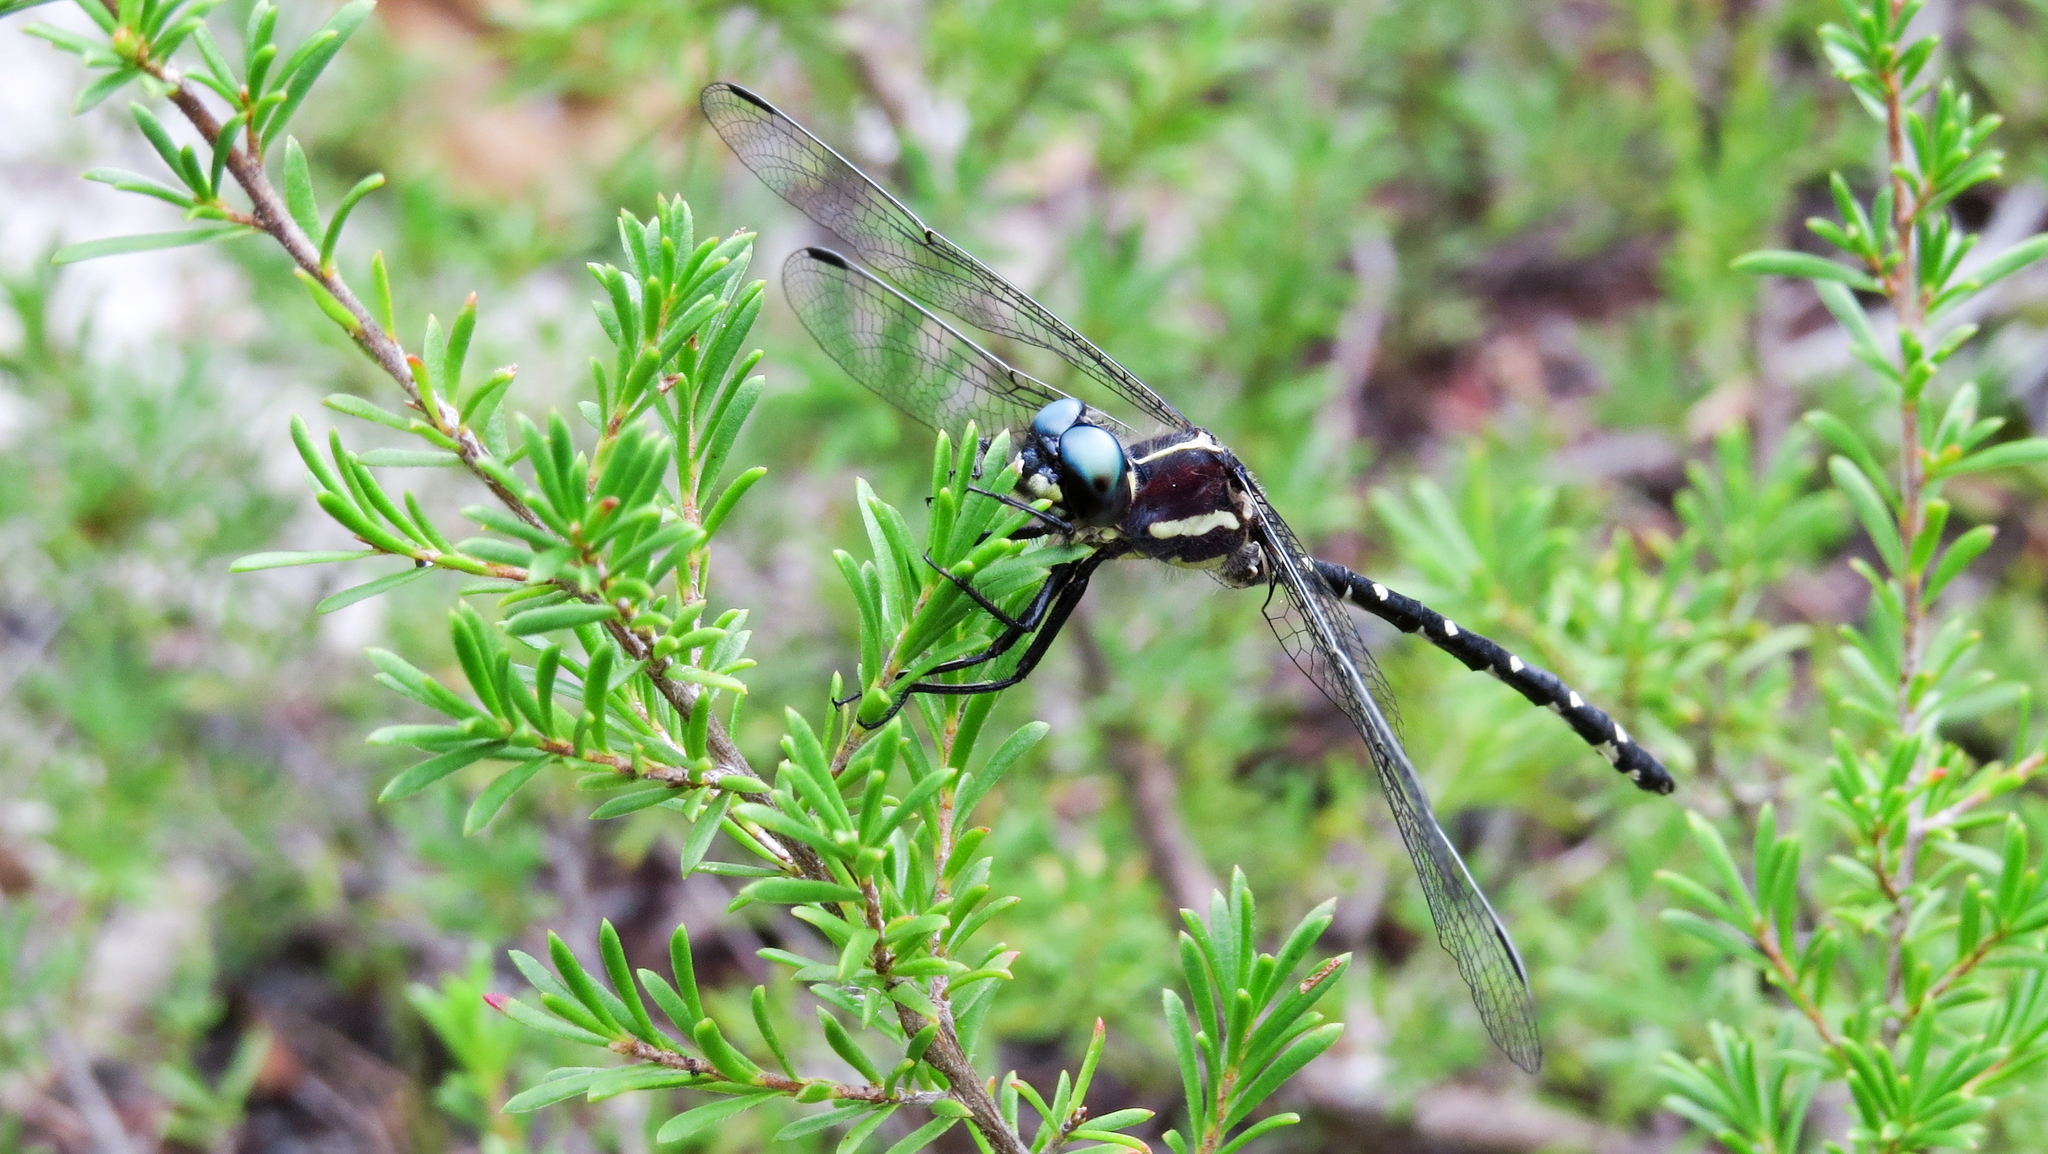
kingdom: Animalia
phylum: Arthropoda
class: Insecta
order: Odonata
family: Synthemistidae
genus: Eusynthemis
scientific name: Eusynthemis tillyardi
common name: Mountain tigertail
